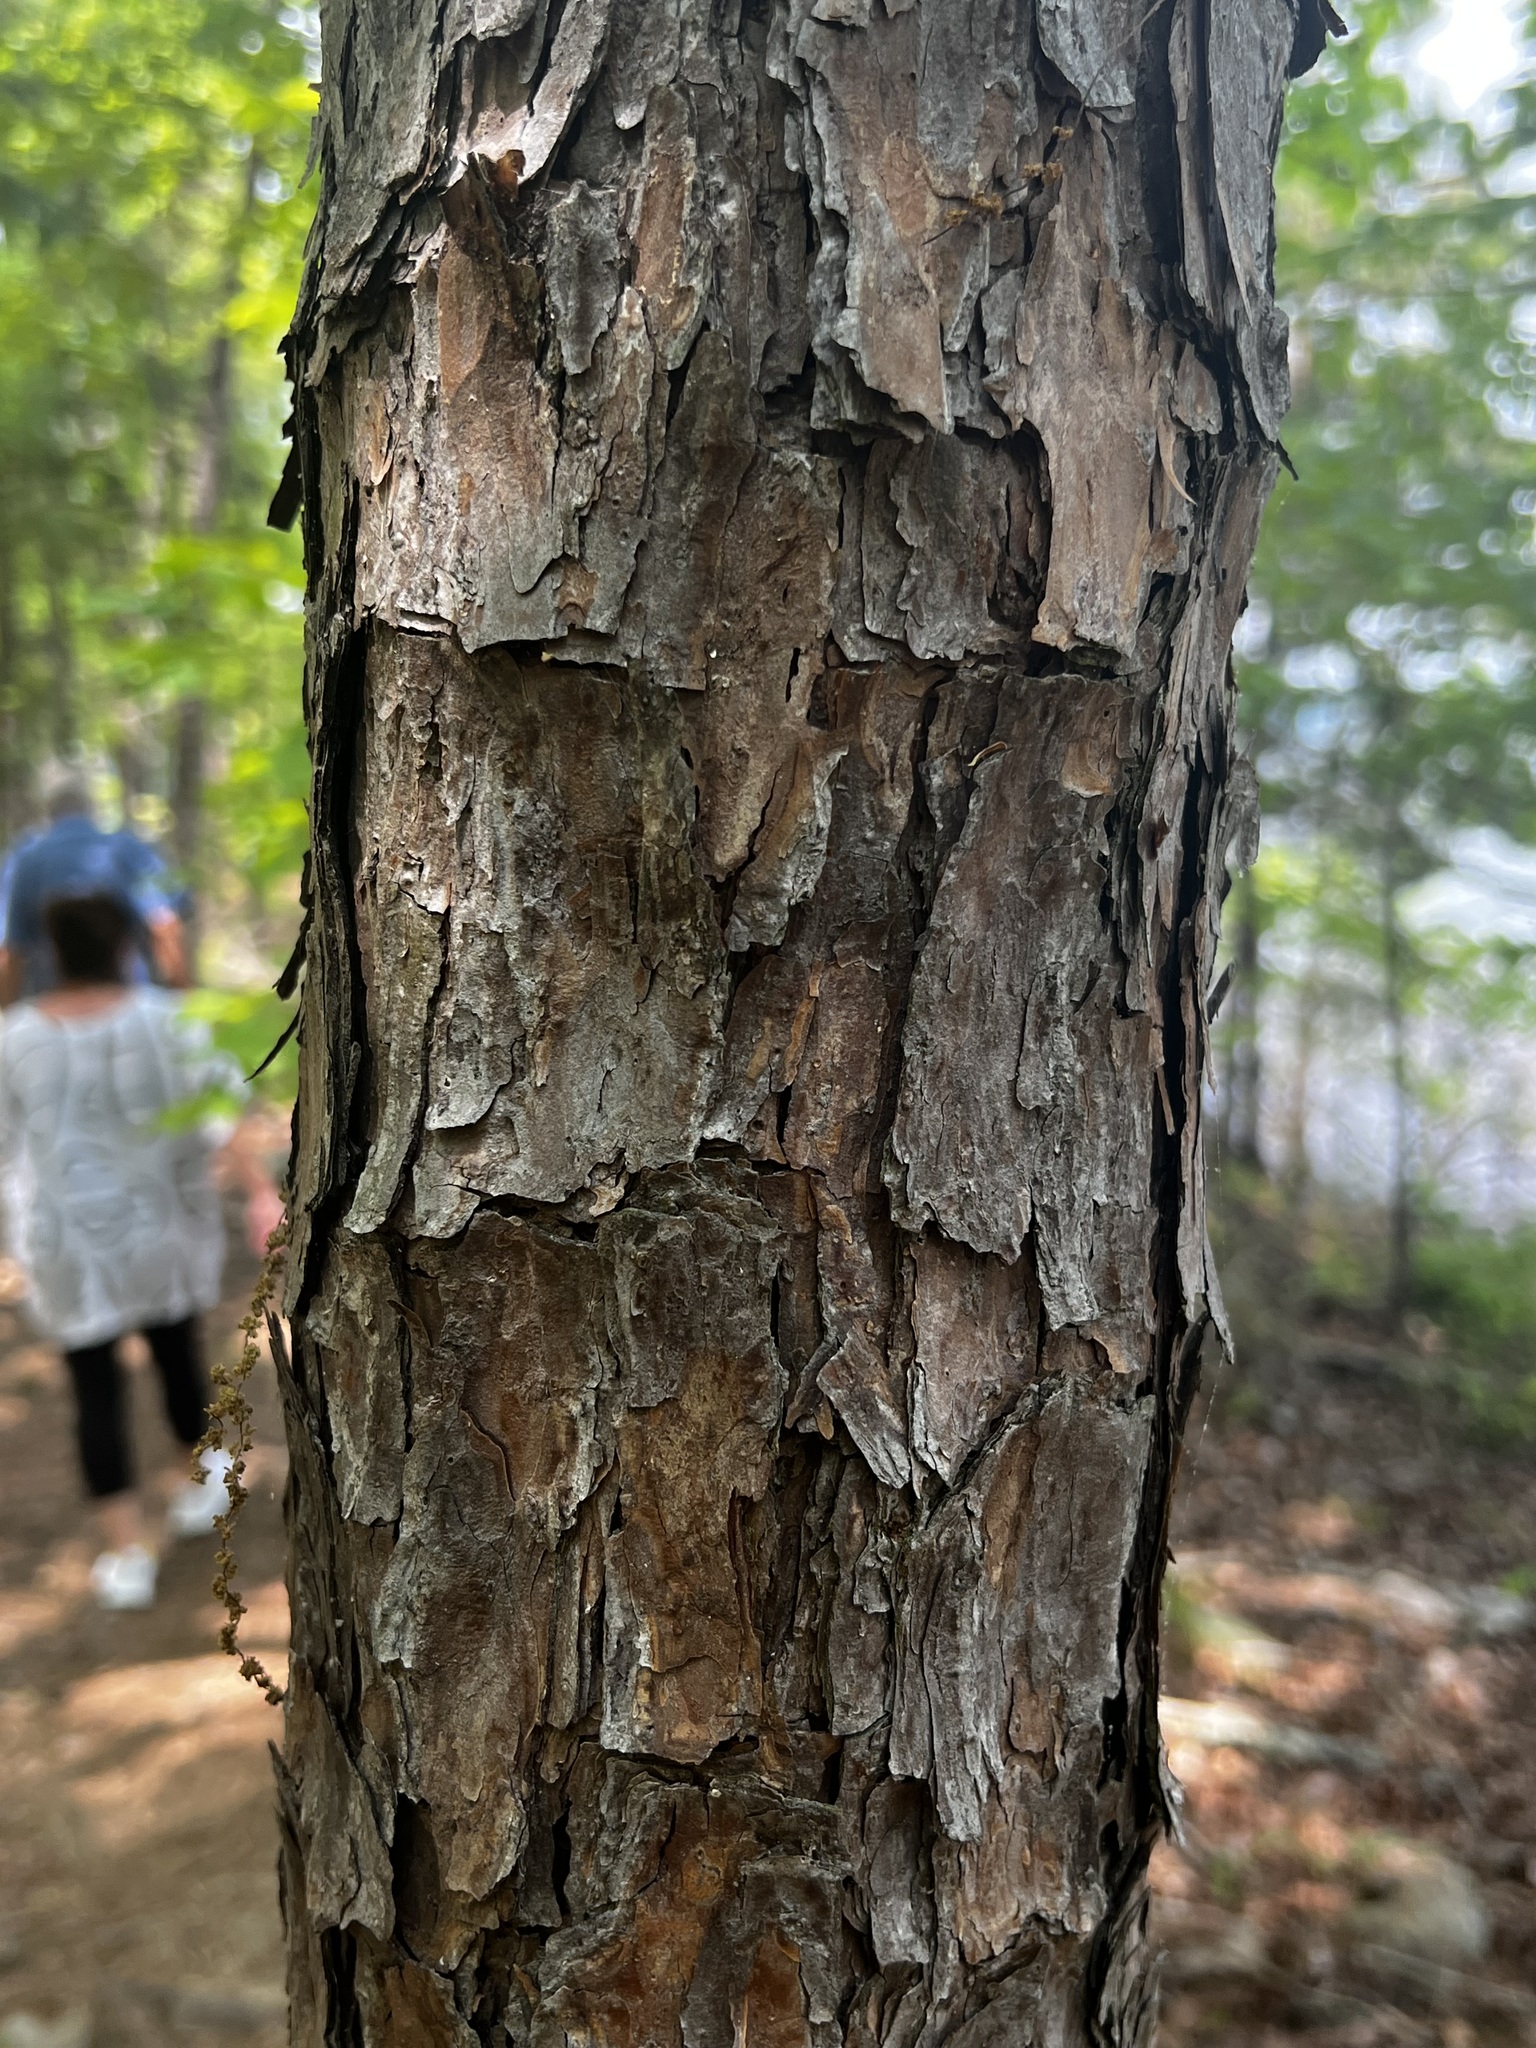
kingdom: Plantae
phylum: Tracheophyta
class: Pinopsida
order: Pinales
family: Pinaceae
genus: Pinus
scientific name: Pinus echinata
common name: Shortleaf pine
